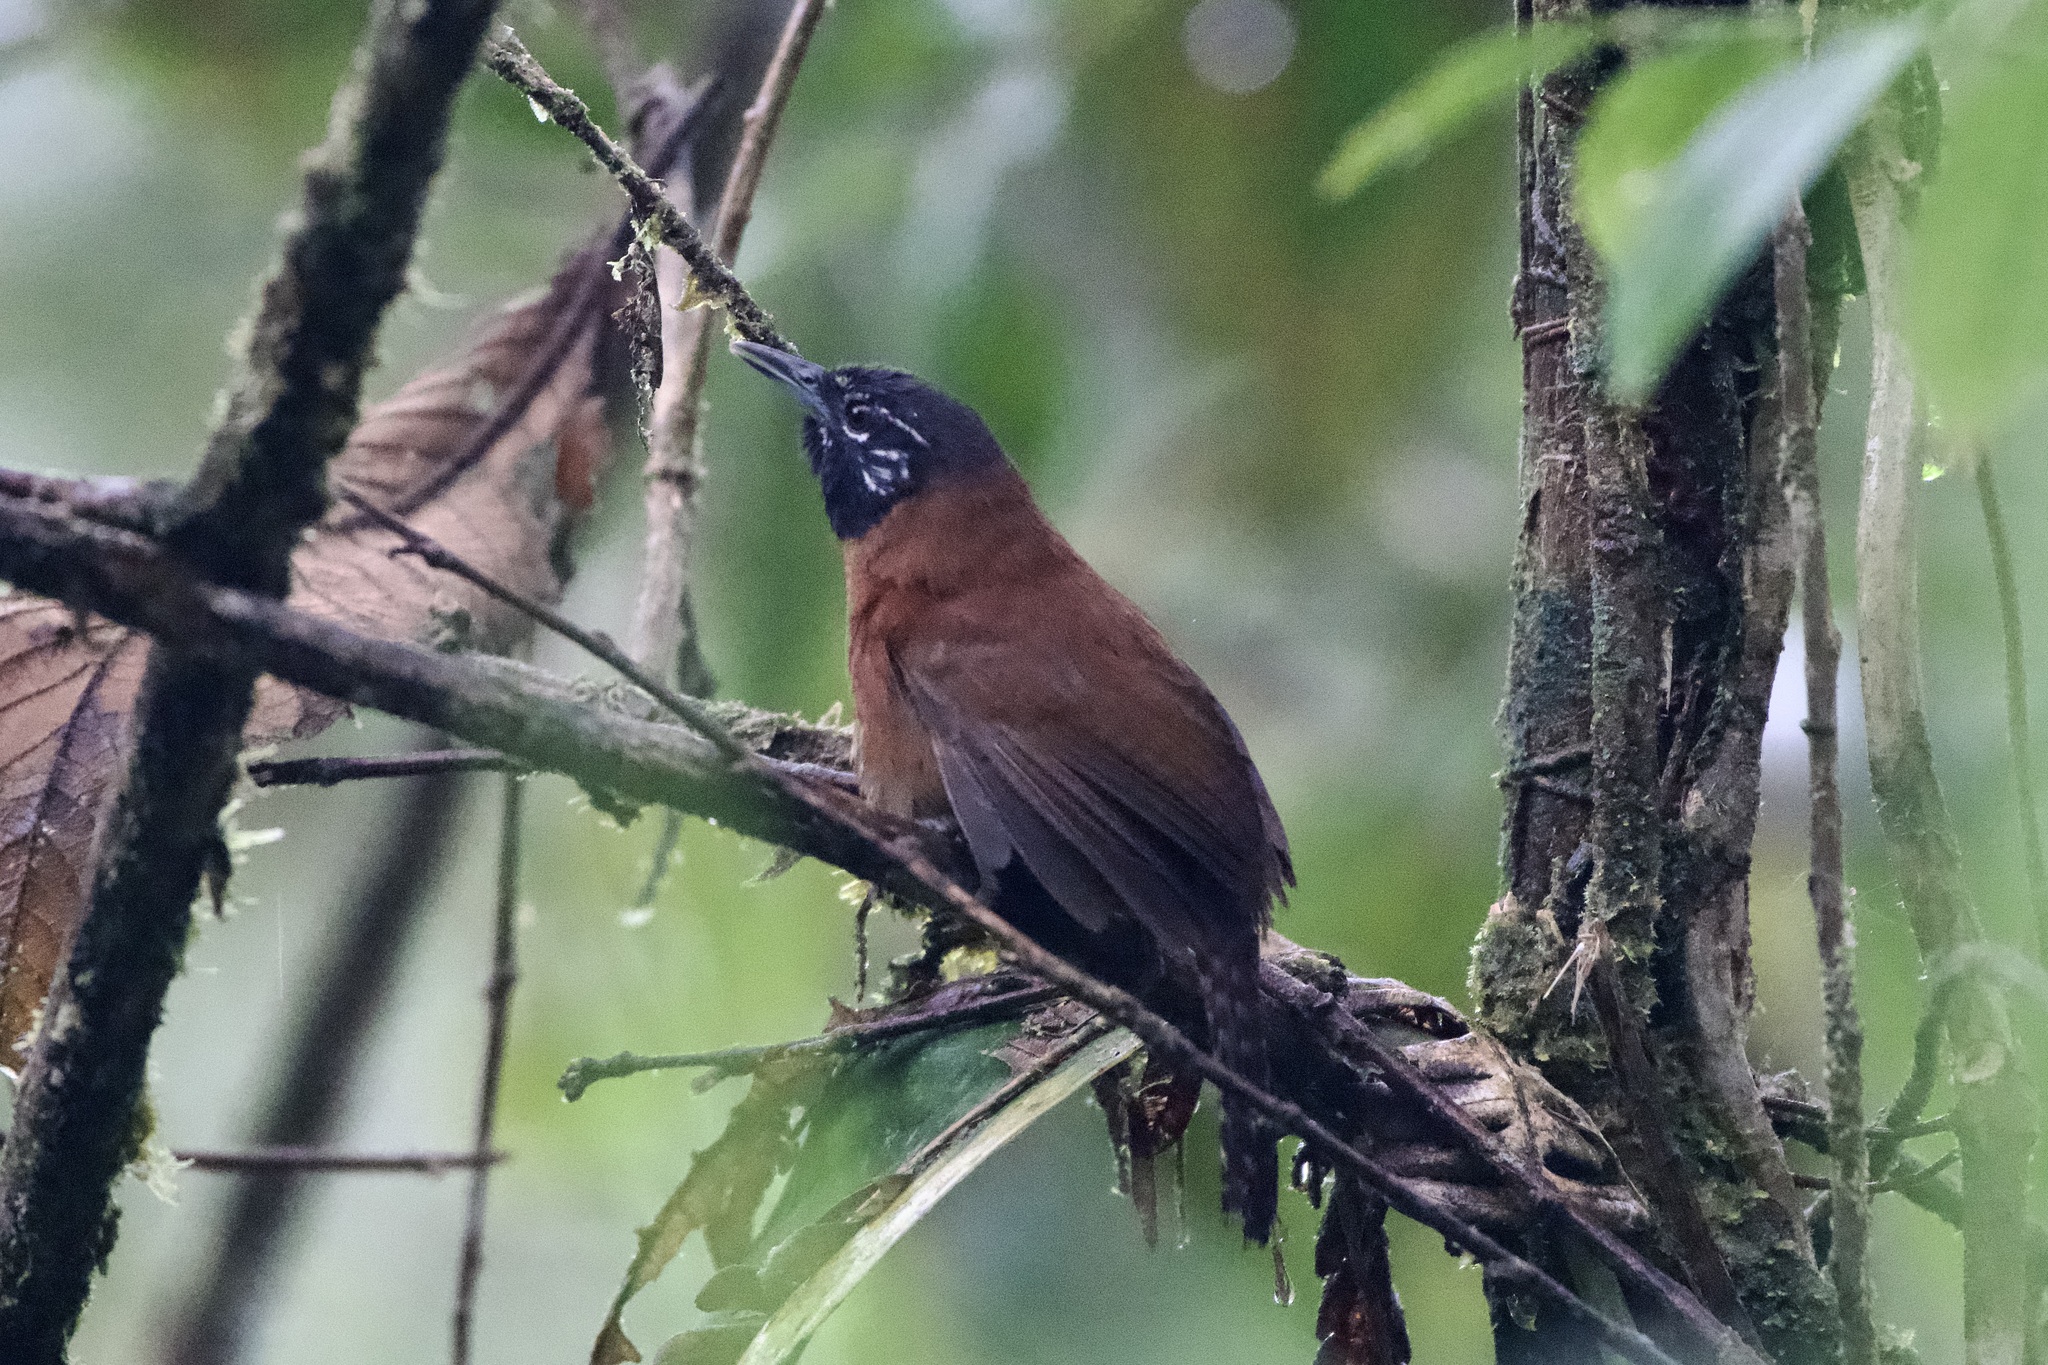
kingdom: Animalia
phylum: Chordata
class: Aves
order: Passeriformes
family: Troglodytidae
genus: Pheugopedius
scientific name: Pheugopedius spadix
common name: Sooty-headed wren
